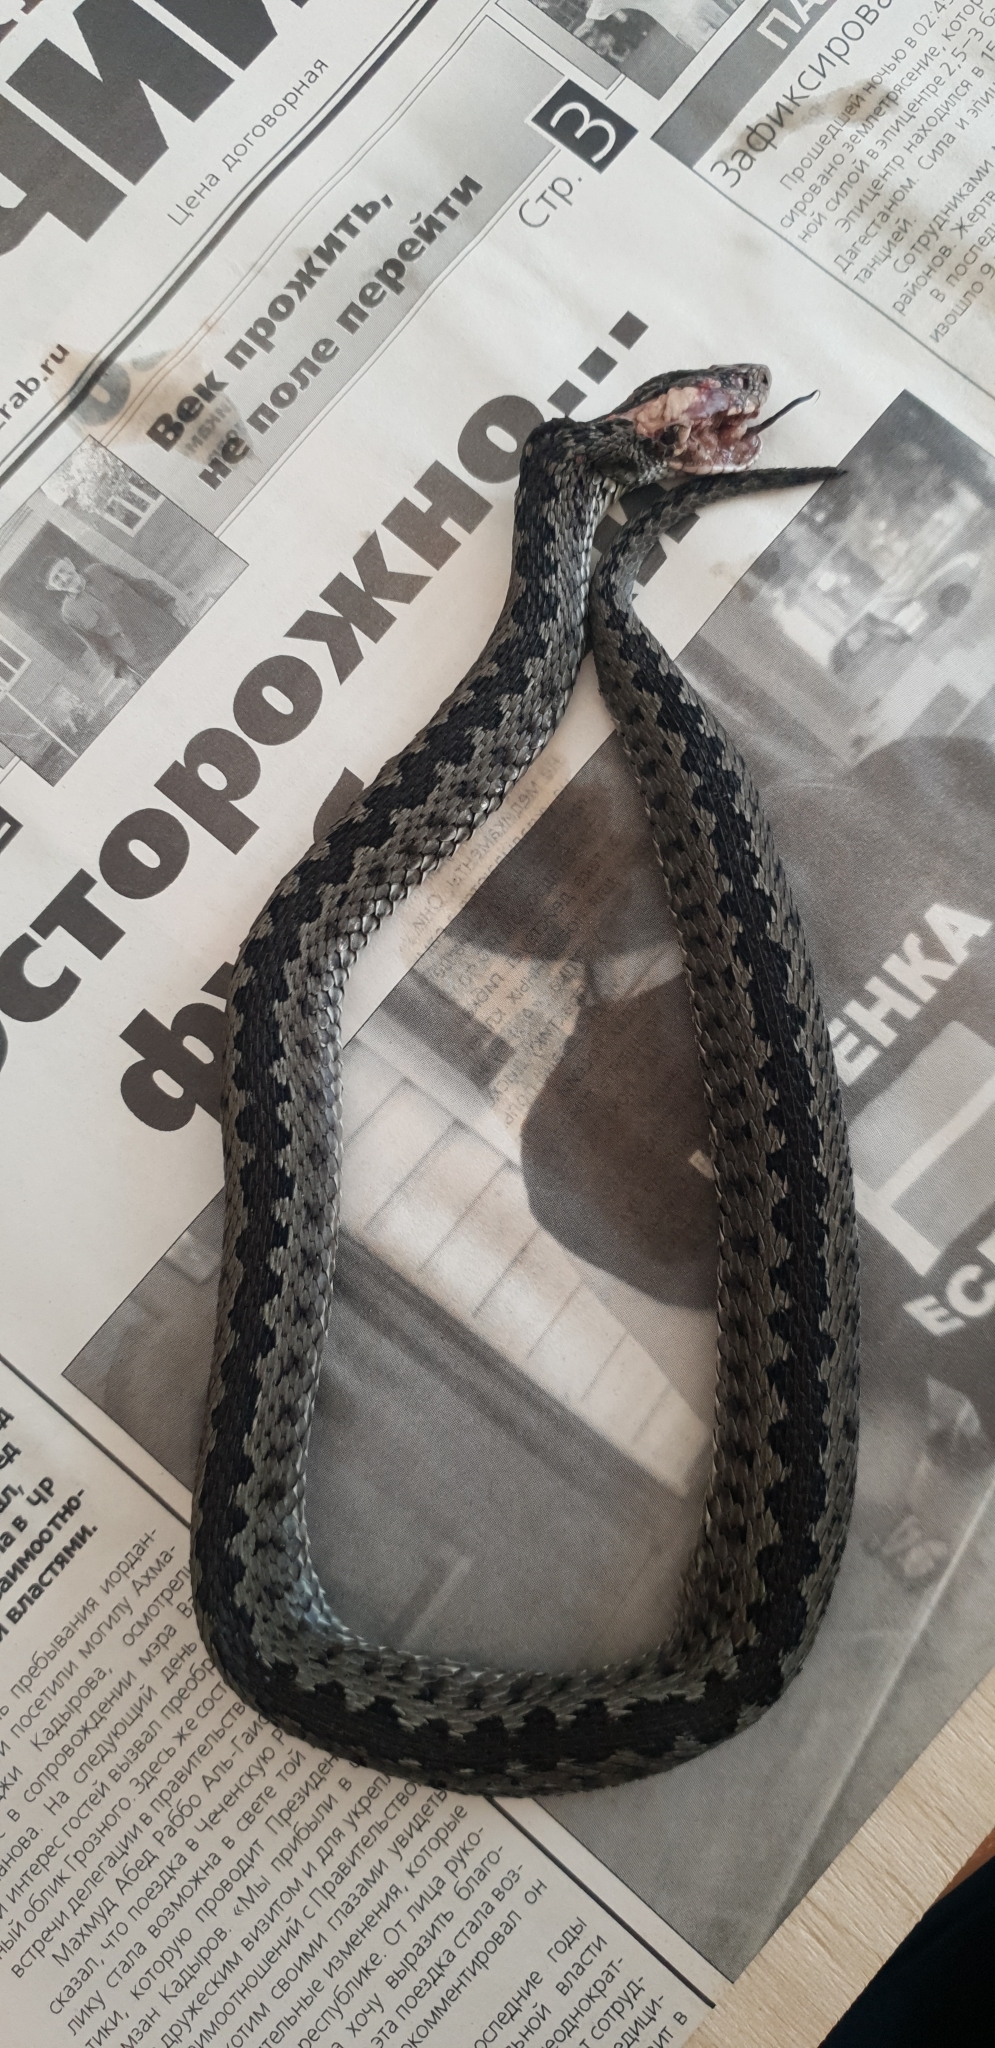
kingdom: Animalia
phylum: Chordata
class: Squamata
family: Viperidae
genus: Vipera
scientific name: Vipera lotievi
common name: Lotiev's viper
